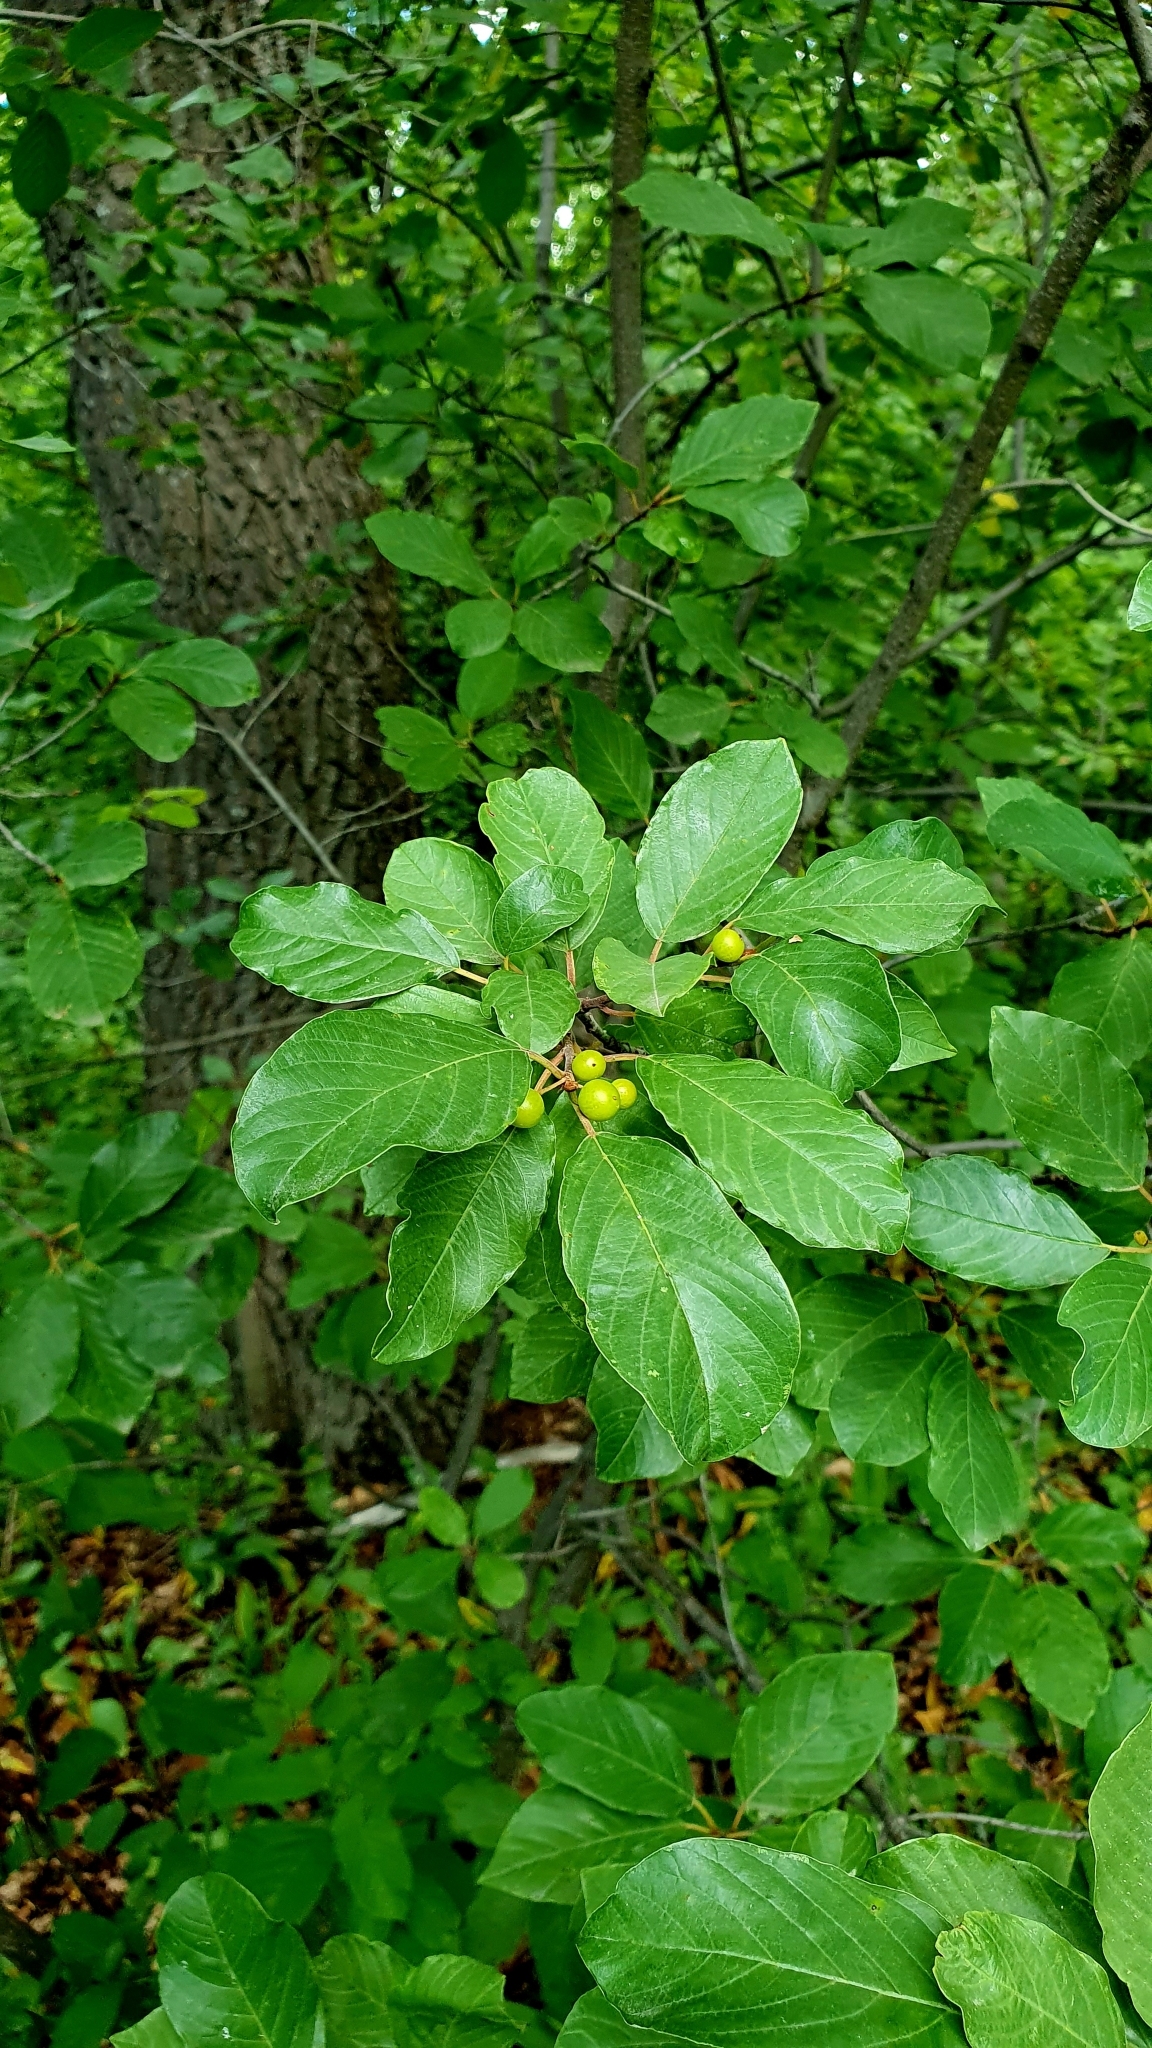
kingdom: Plantae
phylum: Tracheophyta
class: Magnoliopsida
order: Rosales
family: Rhamnaceae
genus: Frangula
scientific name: Frangula alnus
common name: Alder buckthorn
